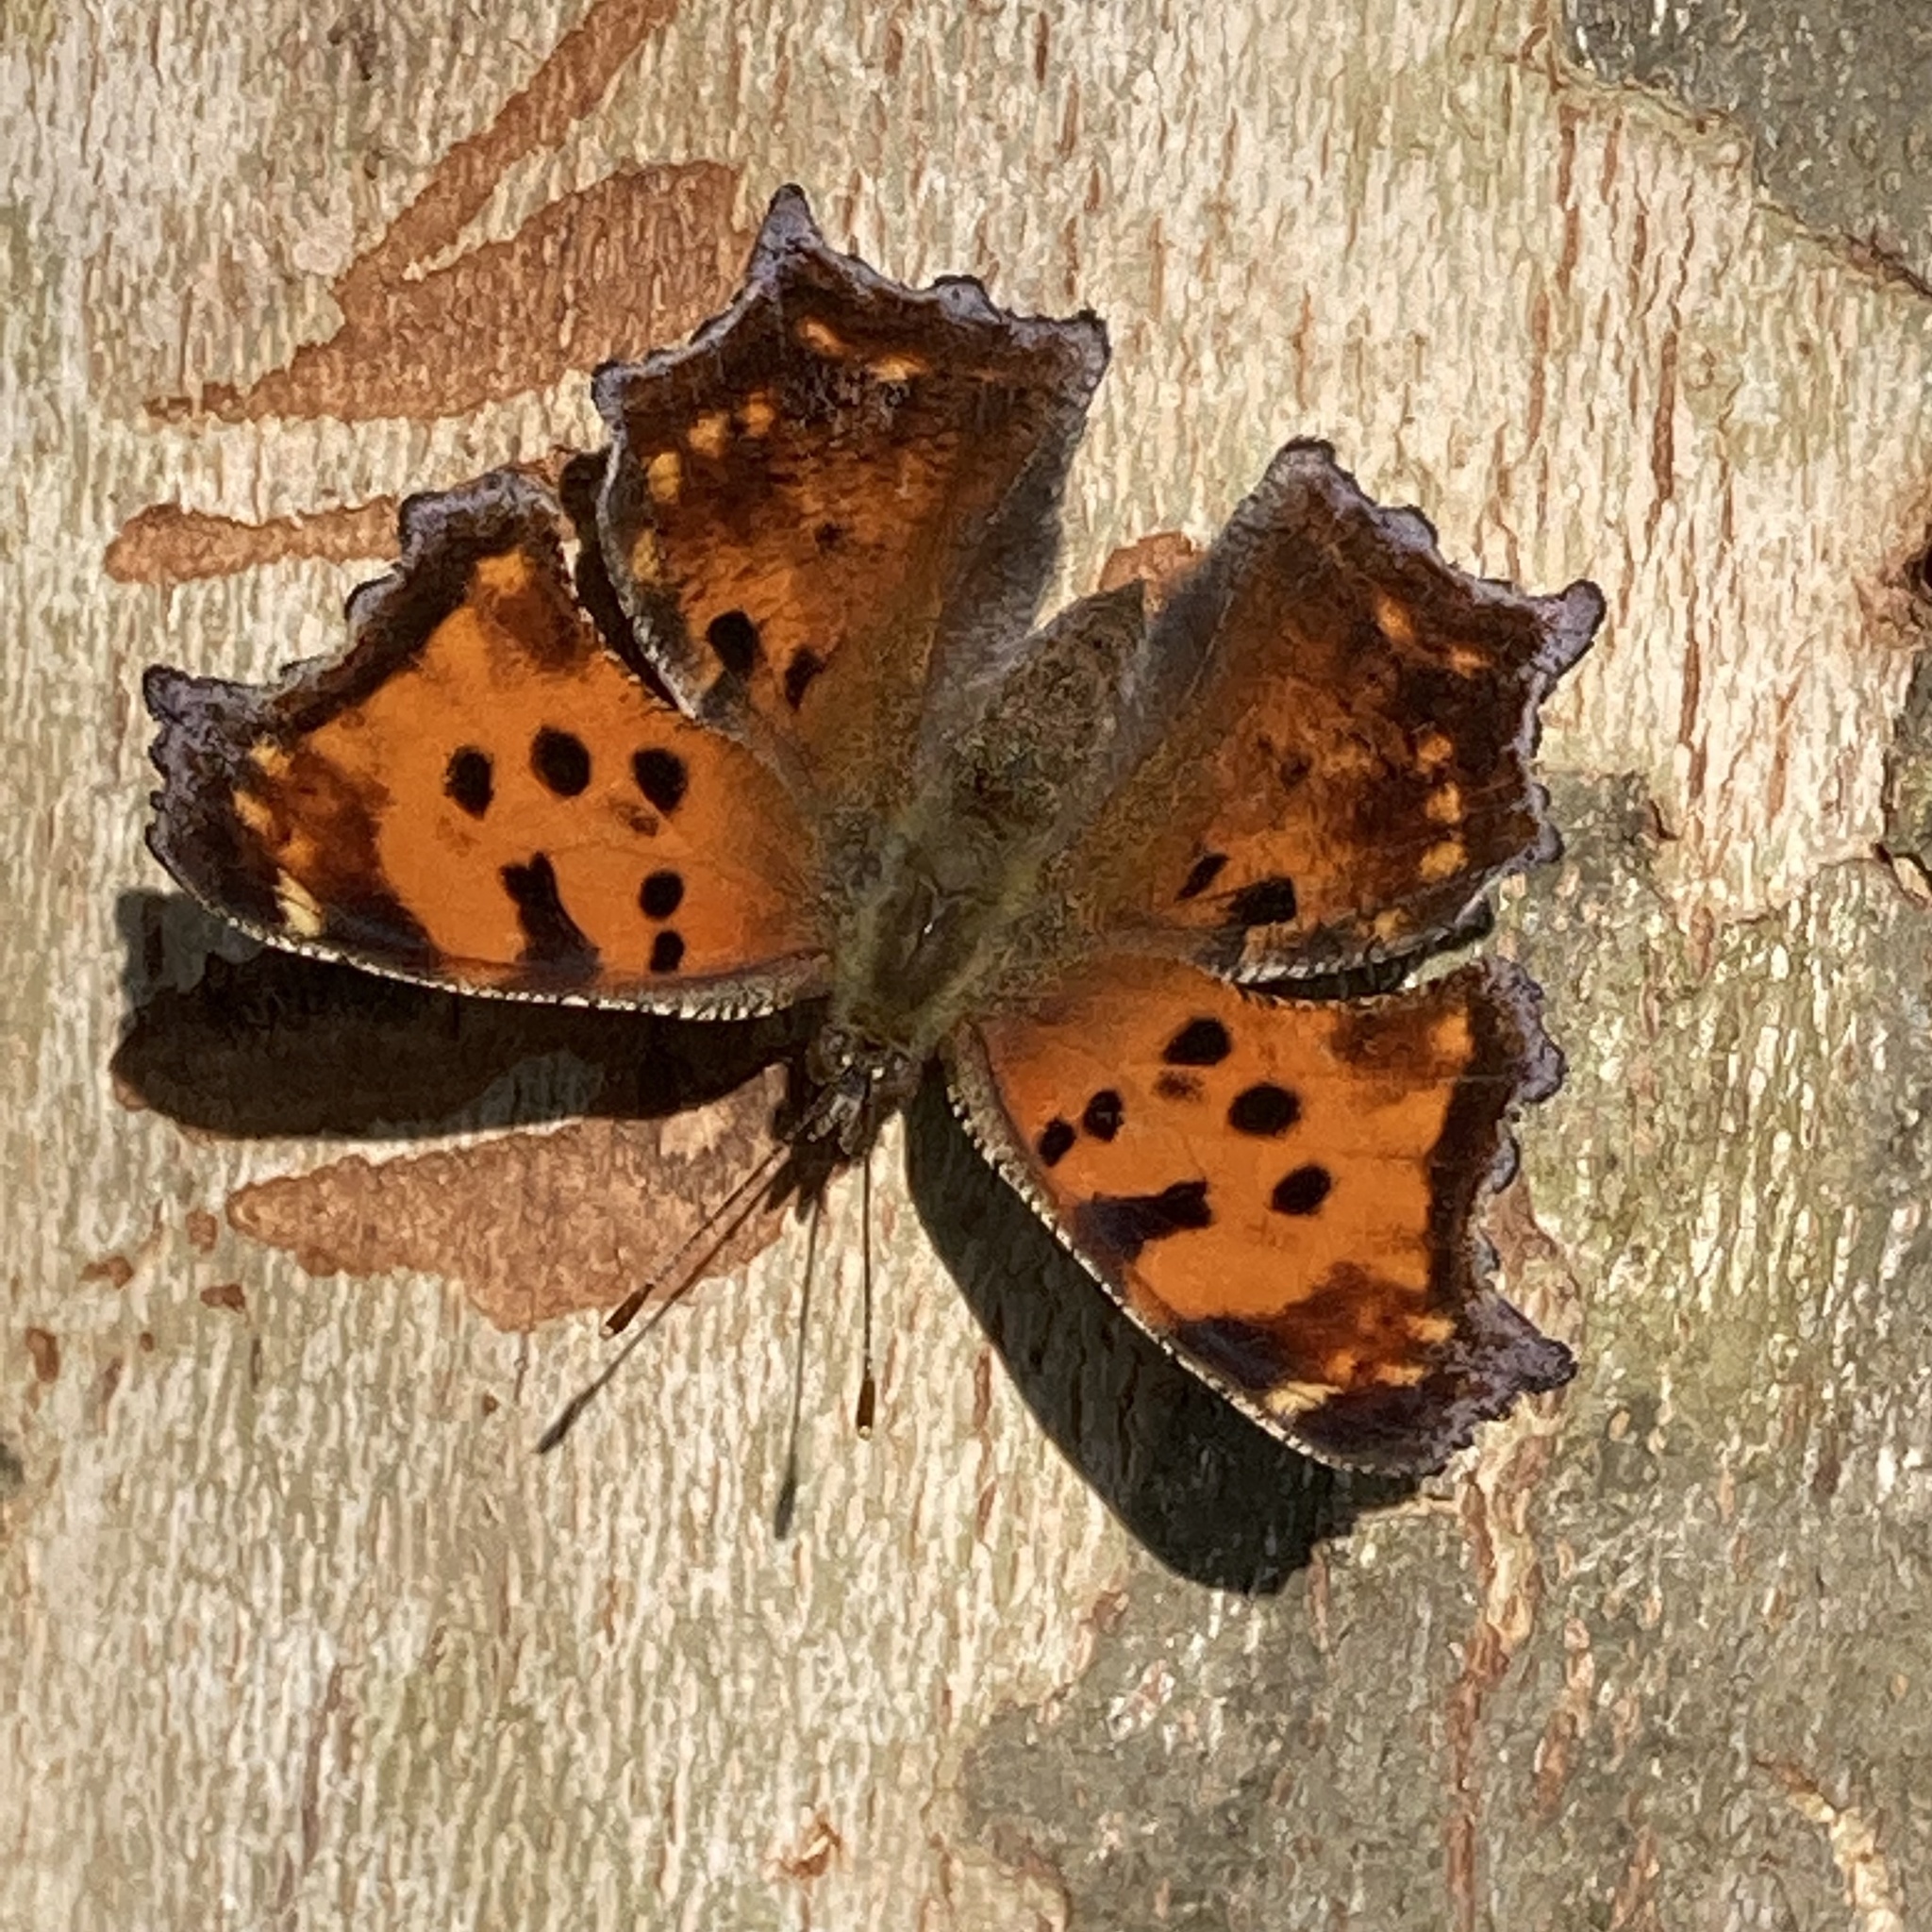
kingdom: Animalia
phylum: Arthropoda
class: Insecta
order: Lepidoptera
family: Nymphalidae
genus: Polygonia
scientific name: Polygonia comma
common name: Eastern comma
